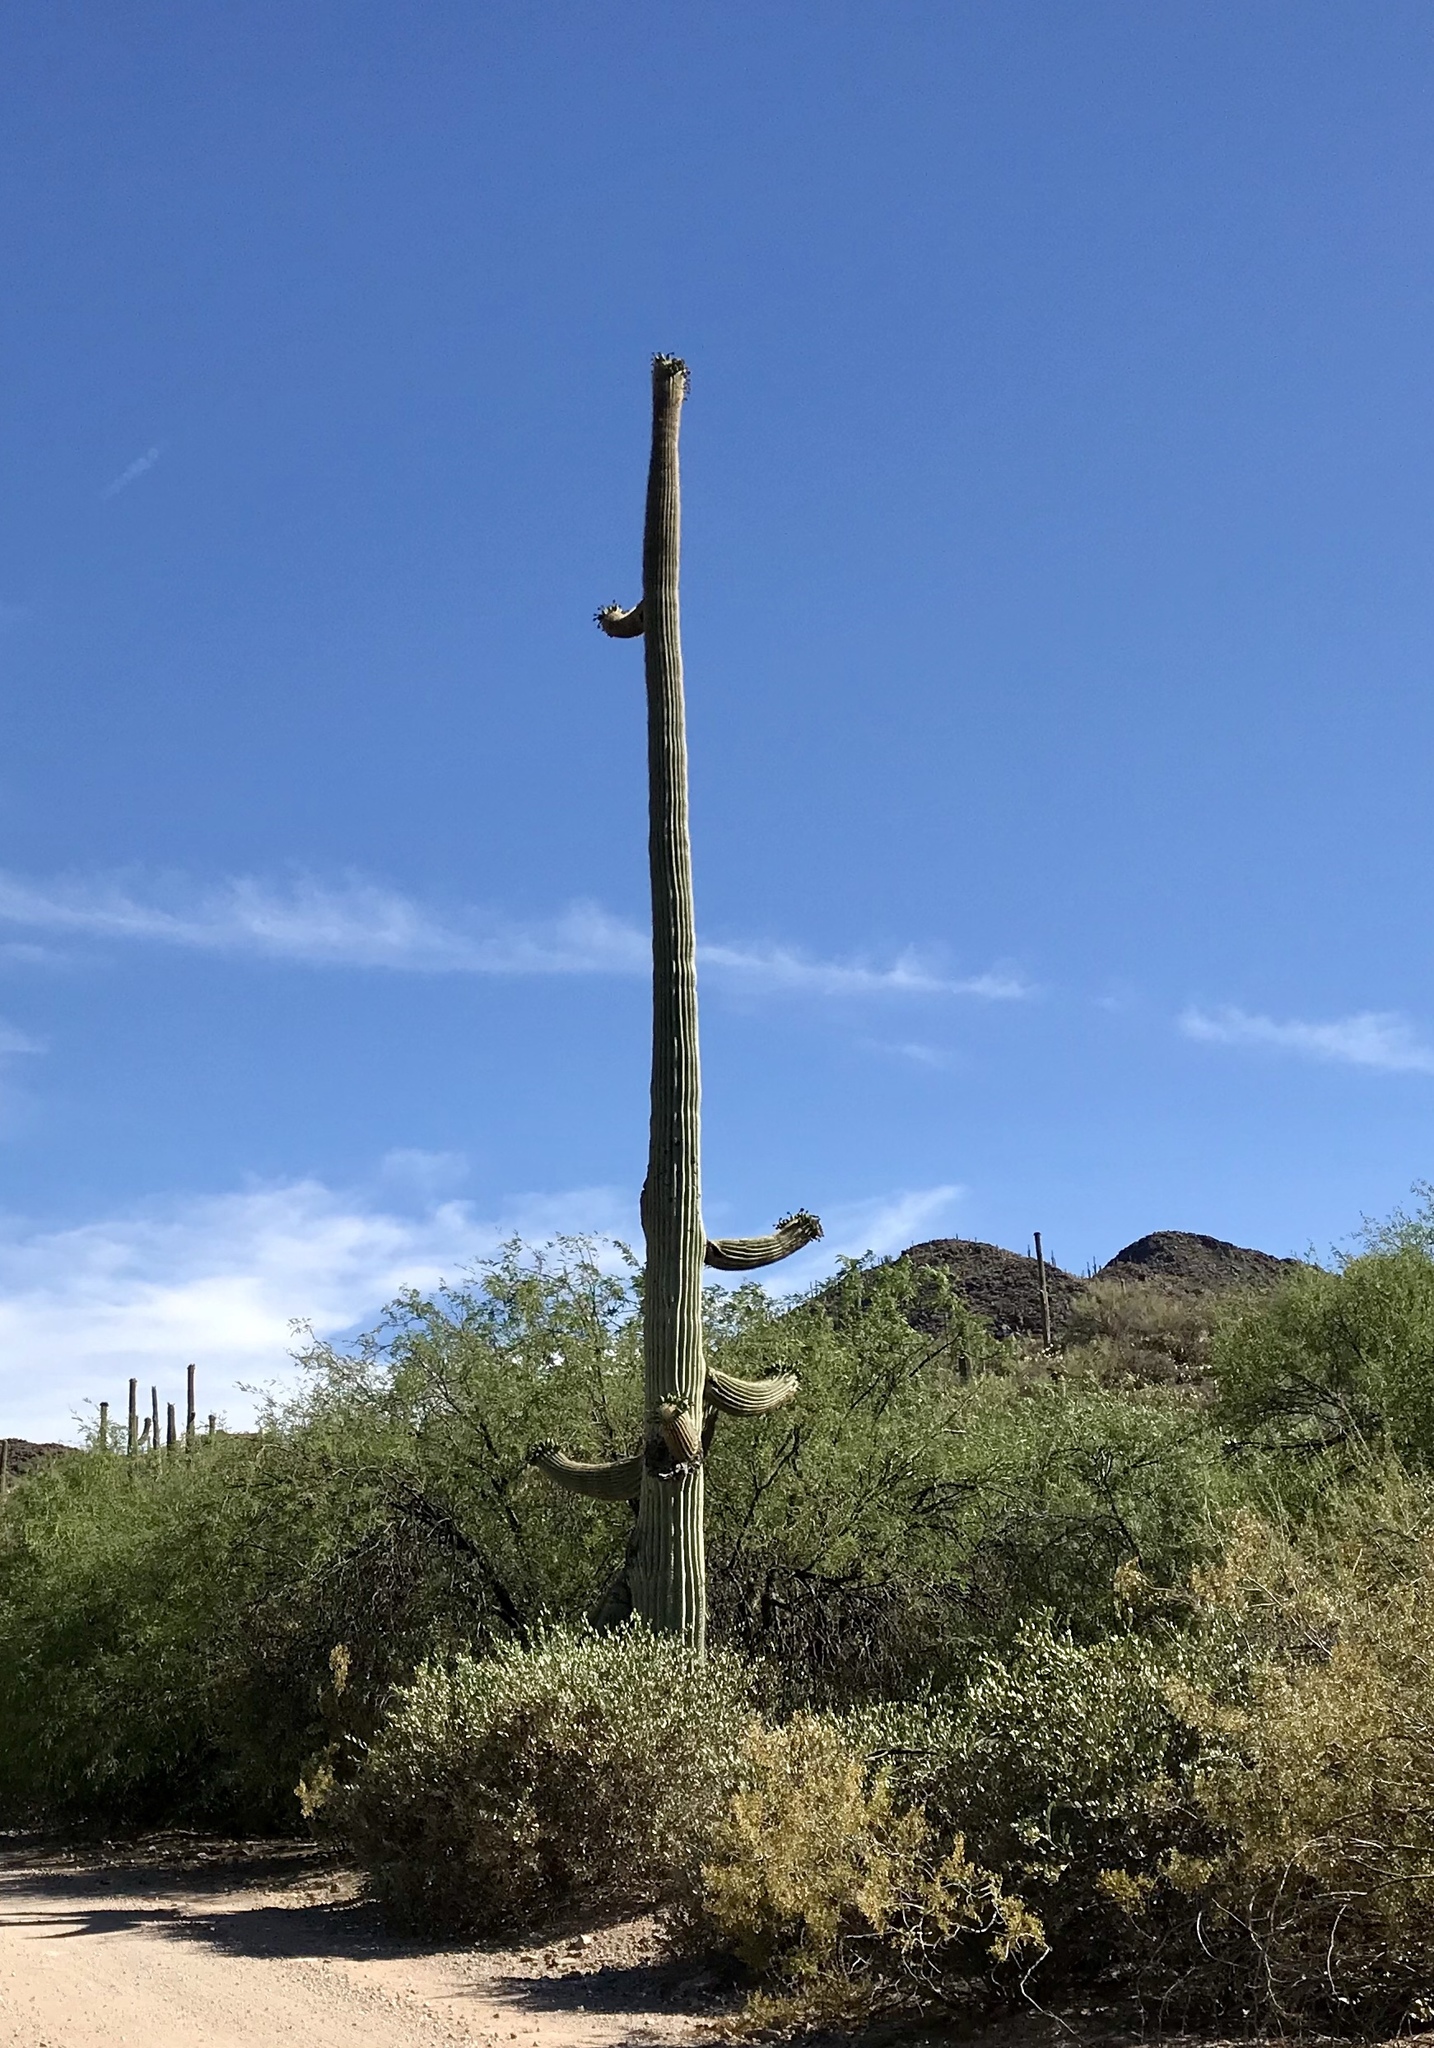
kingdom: Plantae
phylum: Tracheophyta
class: Magnoliopsida
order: Caryophyllales
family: Cactaceae
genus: Carnegiea
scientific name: Carnegiea gigantea
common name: Saguaro
